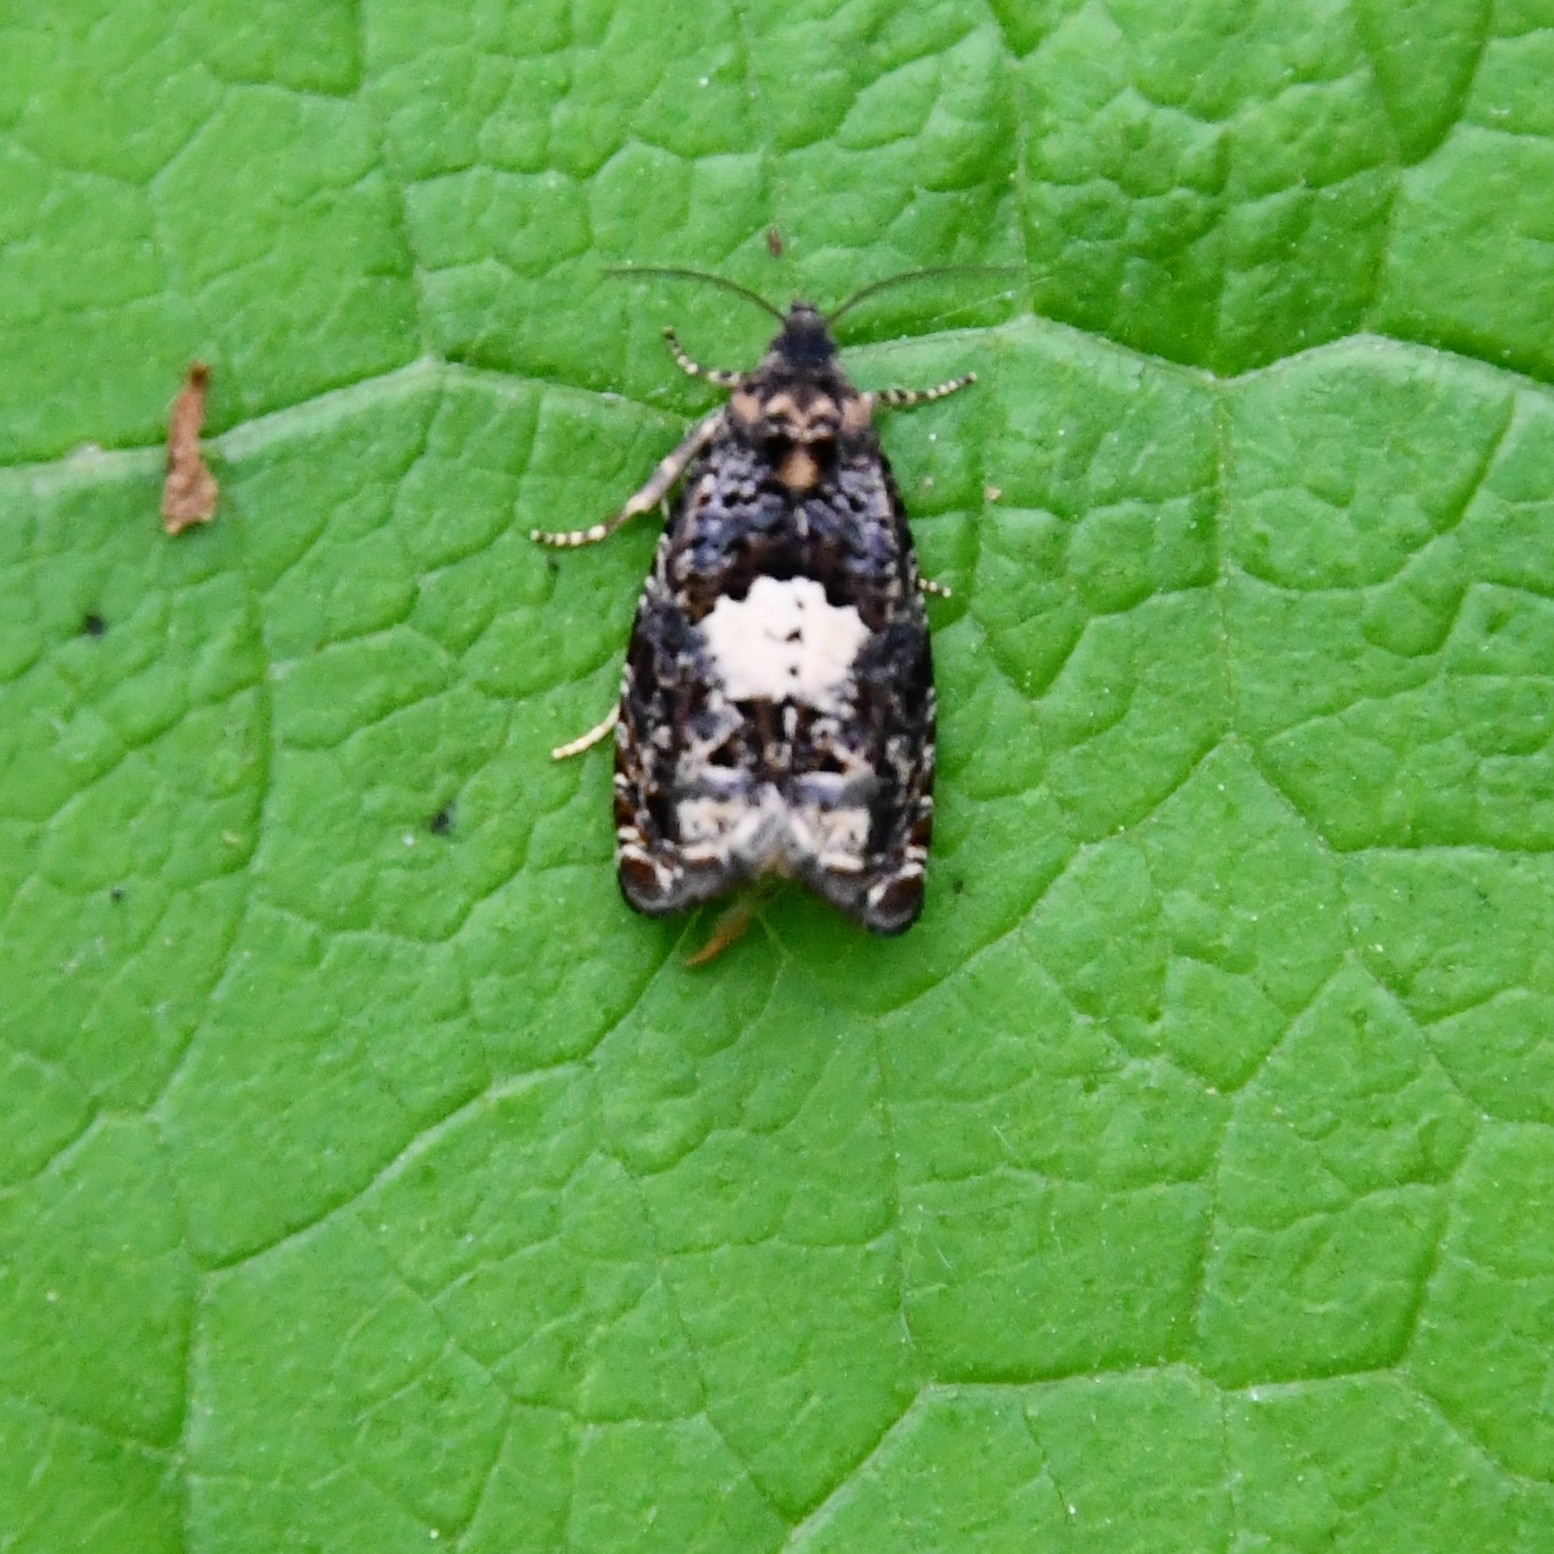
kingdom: Animalia
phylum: Arthropoda
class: Insecta
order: Lepidoptera
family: Tortricidae
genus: Epiblema
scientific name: Epiblema cirsiana
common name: Knapweed bell
